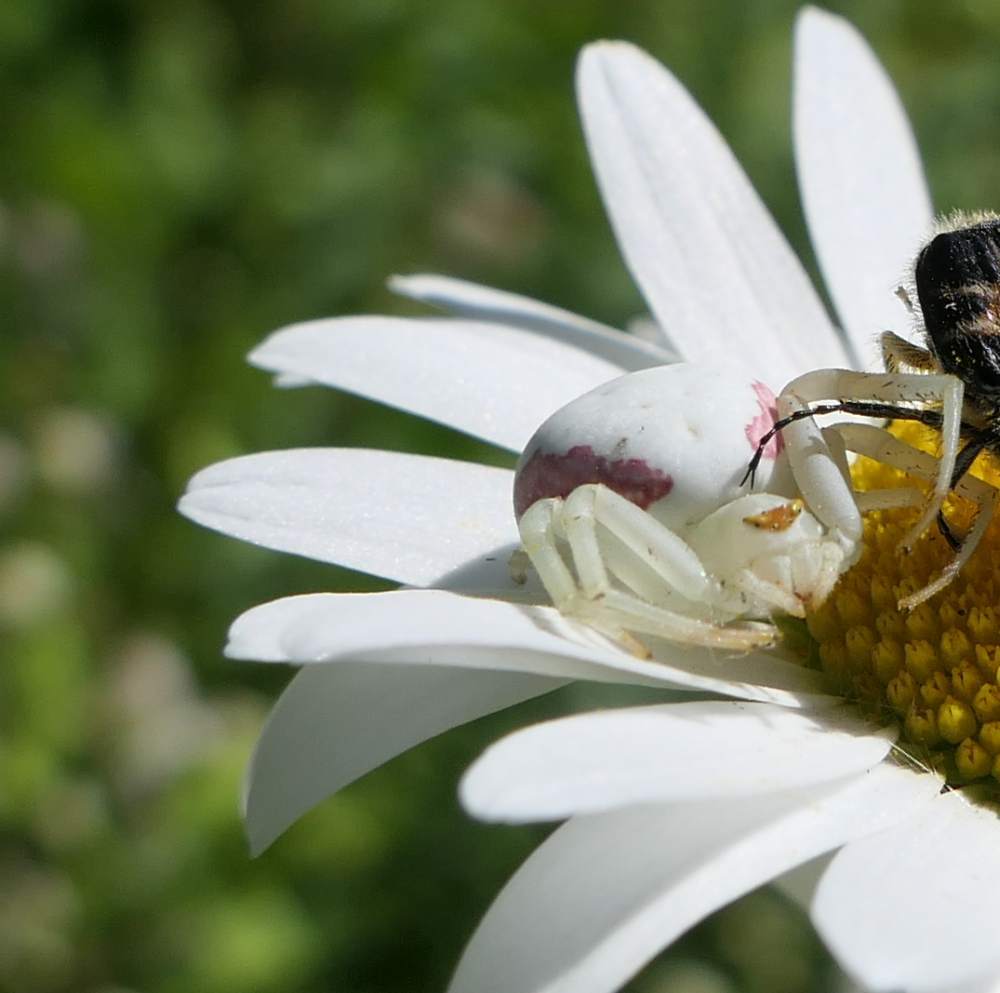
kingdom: Animalia
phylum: Arthropoda
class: Arachnida
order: Araneae
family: Thomisidae
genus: Misumena
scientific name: Misumena vatia
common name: Goldenrod crab spider
